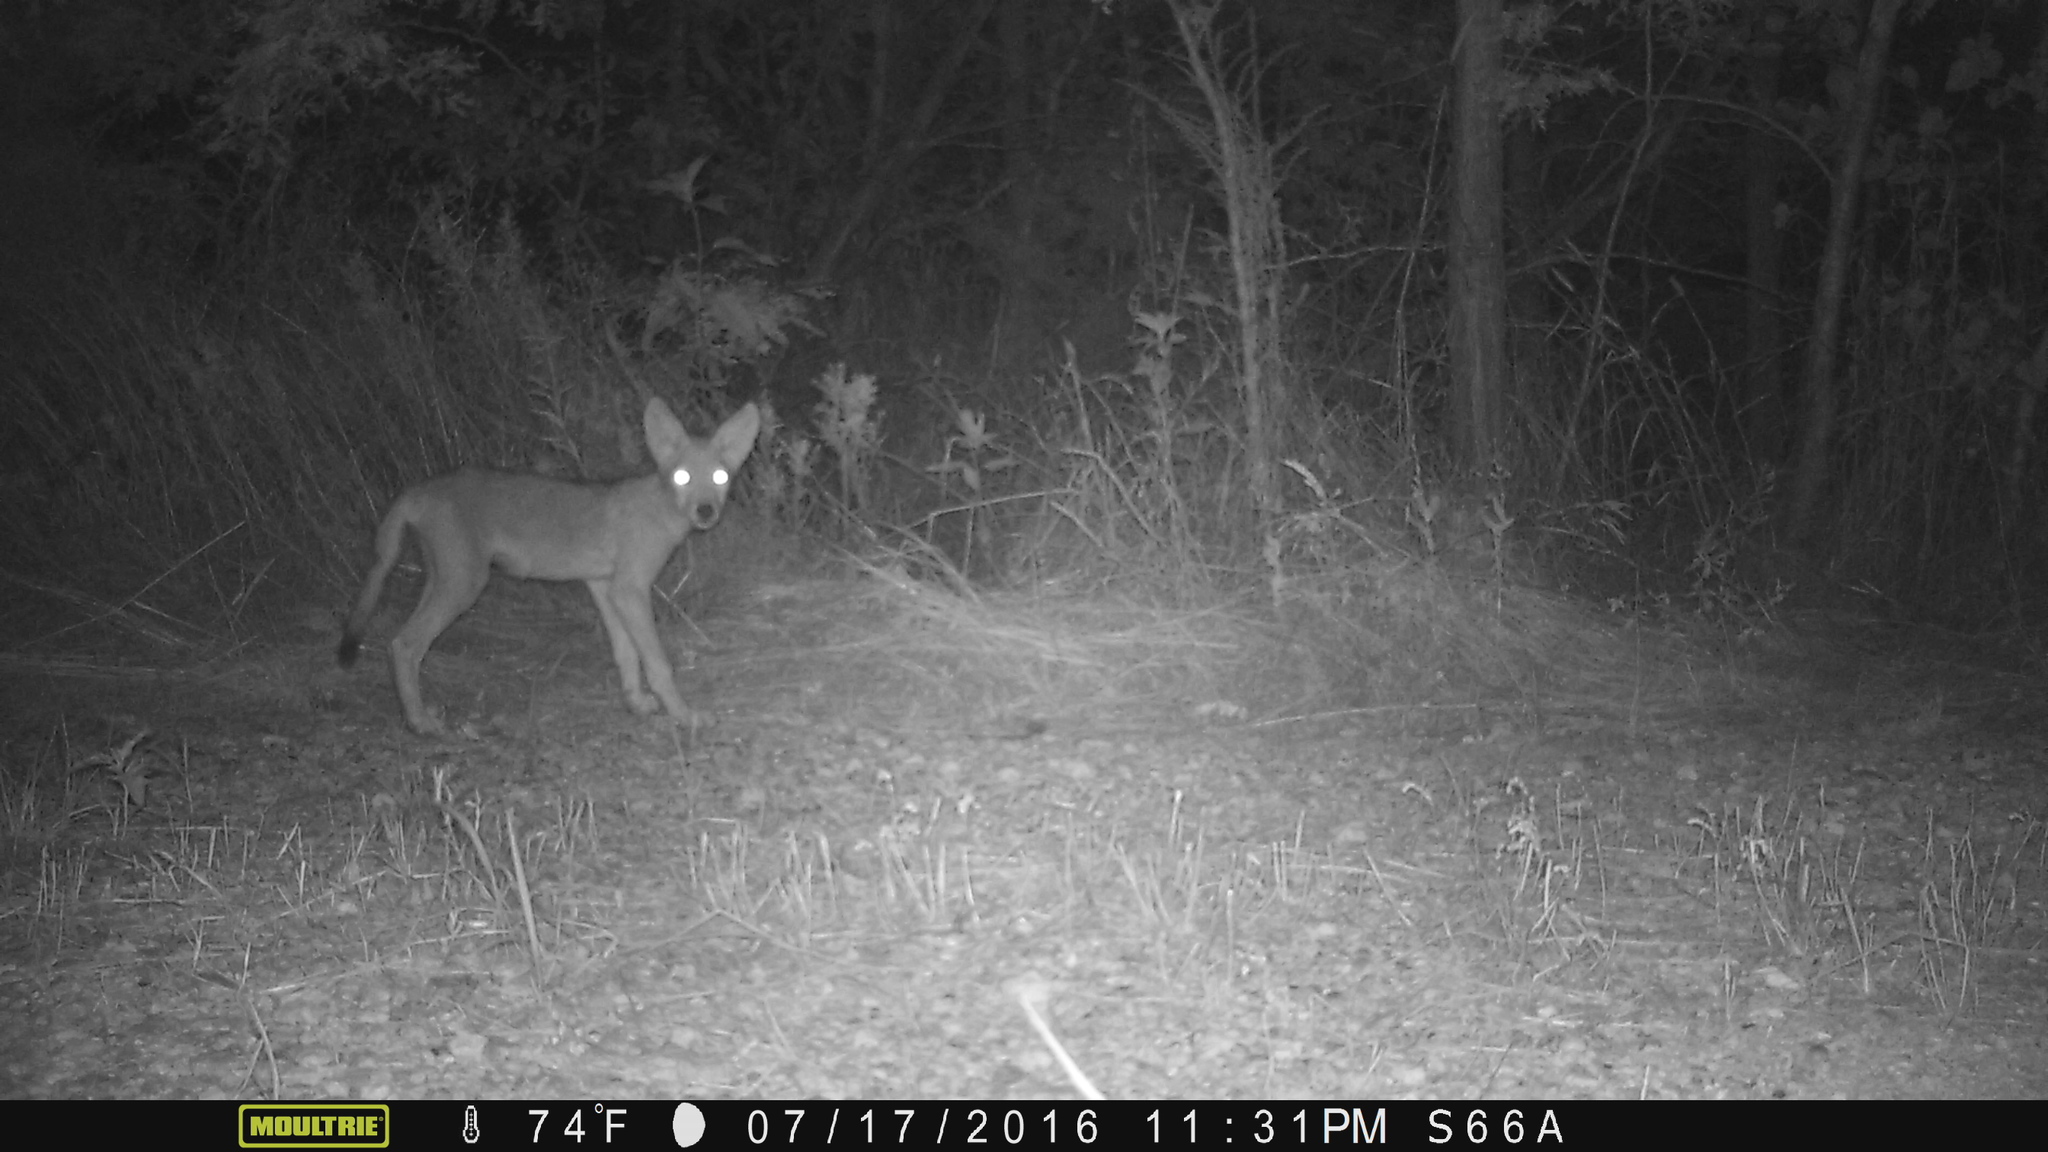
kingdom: Animalia
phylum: Chordata
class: Mammalia
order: Carnivora
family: Canidae
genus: Canis
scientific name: Canis latrans
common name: Coyote
